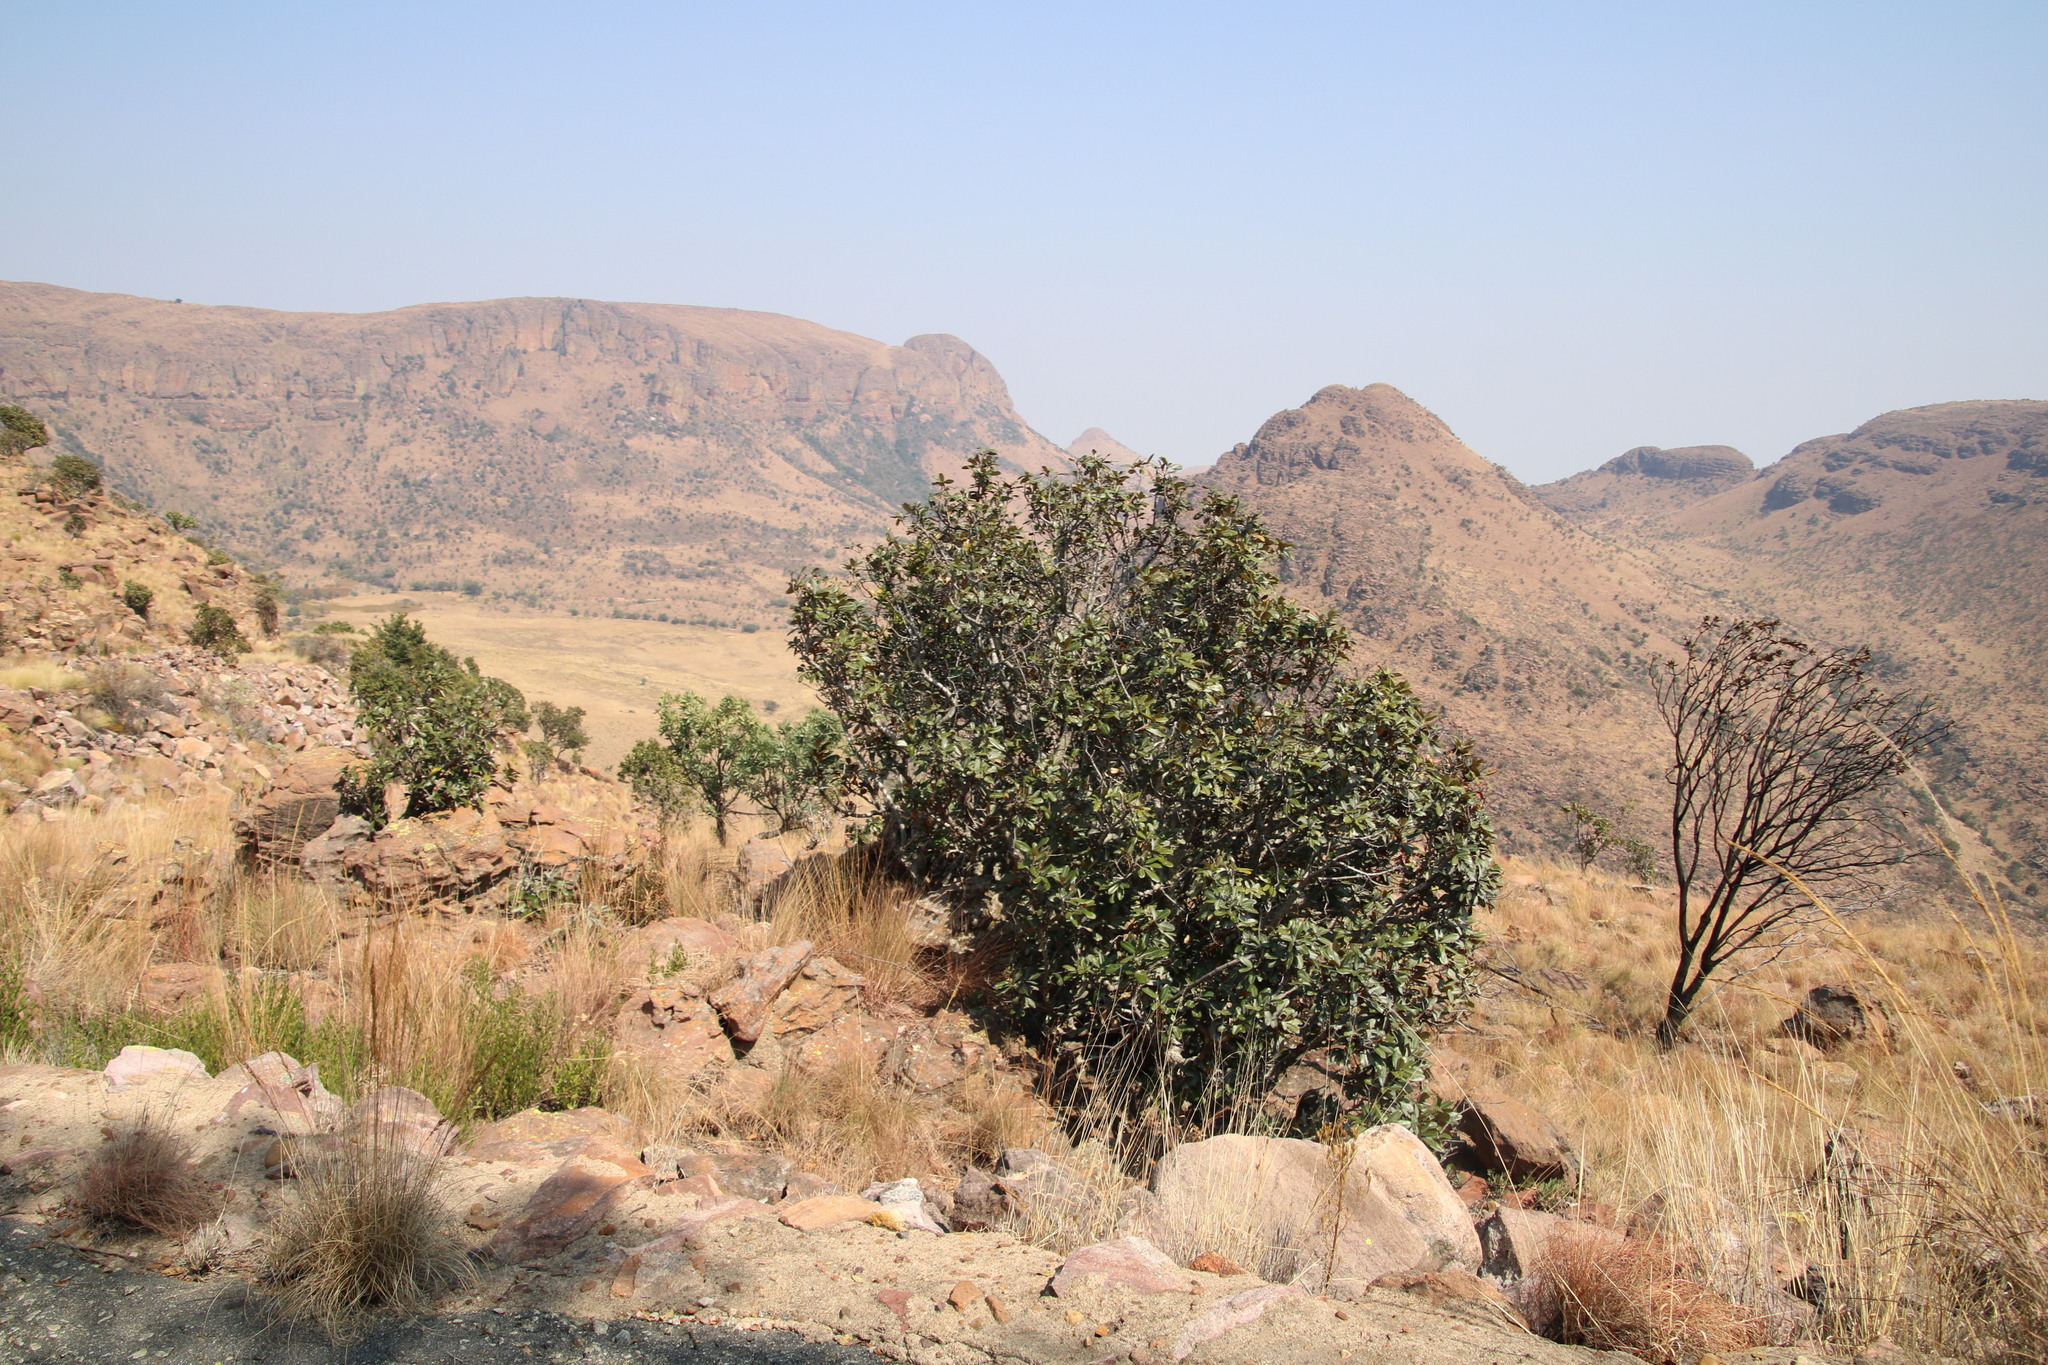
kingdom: Plantae
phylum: Tracheophyta
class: Magnoliopsida
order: Myrtales
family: Myrtaceae
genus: Syzygium
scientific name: Syzygium cordatum
